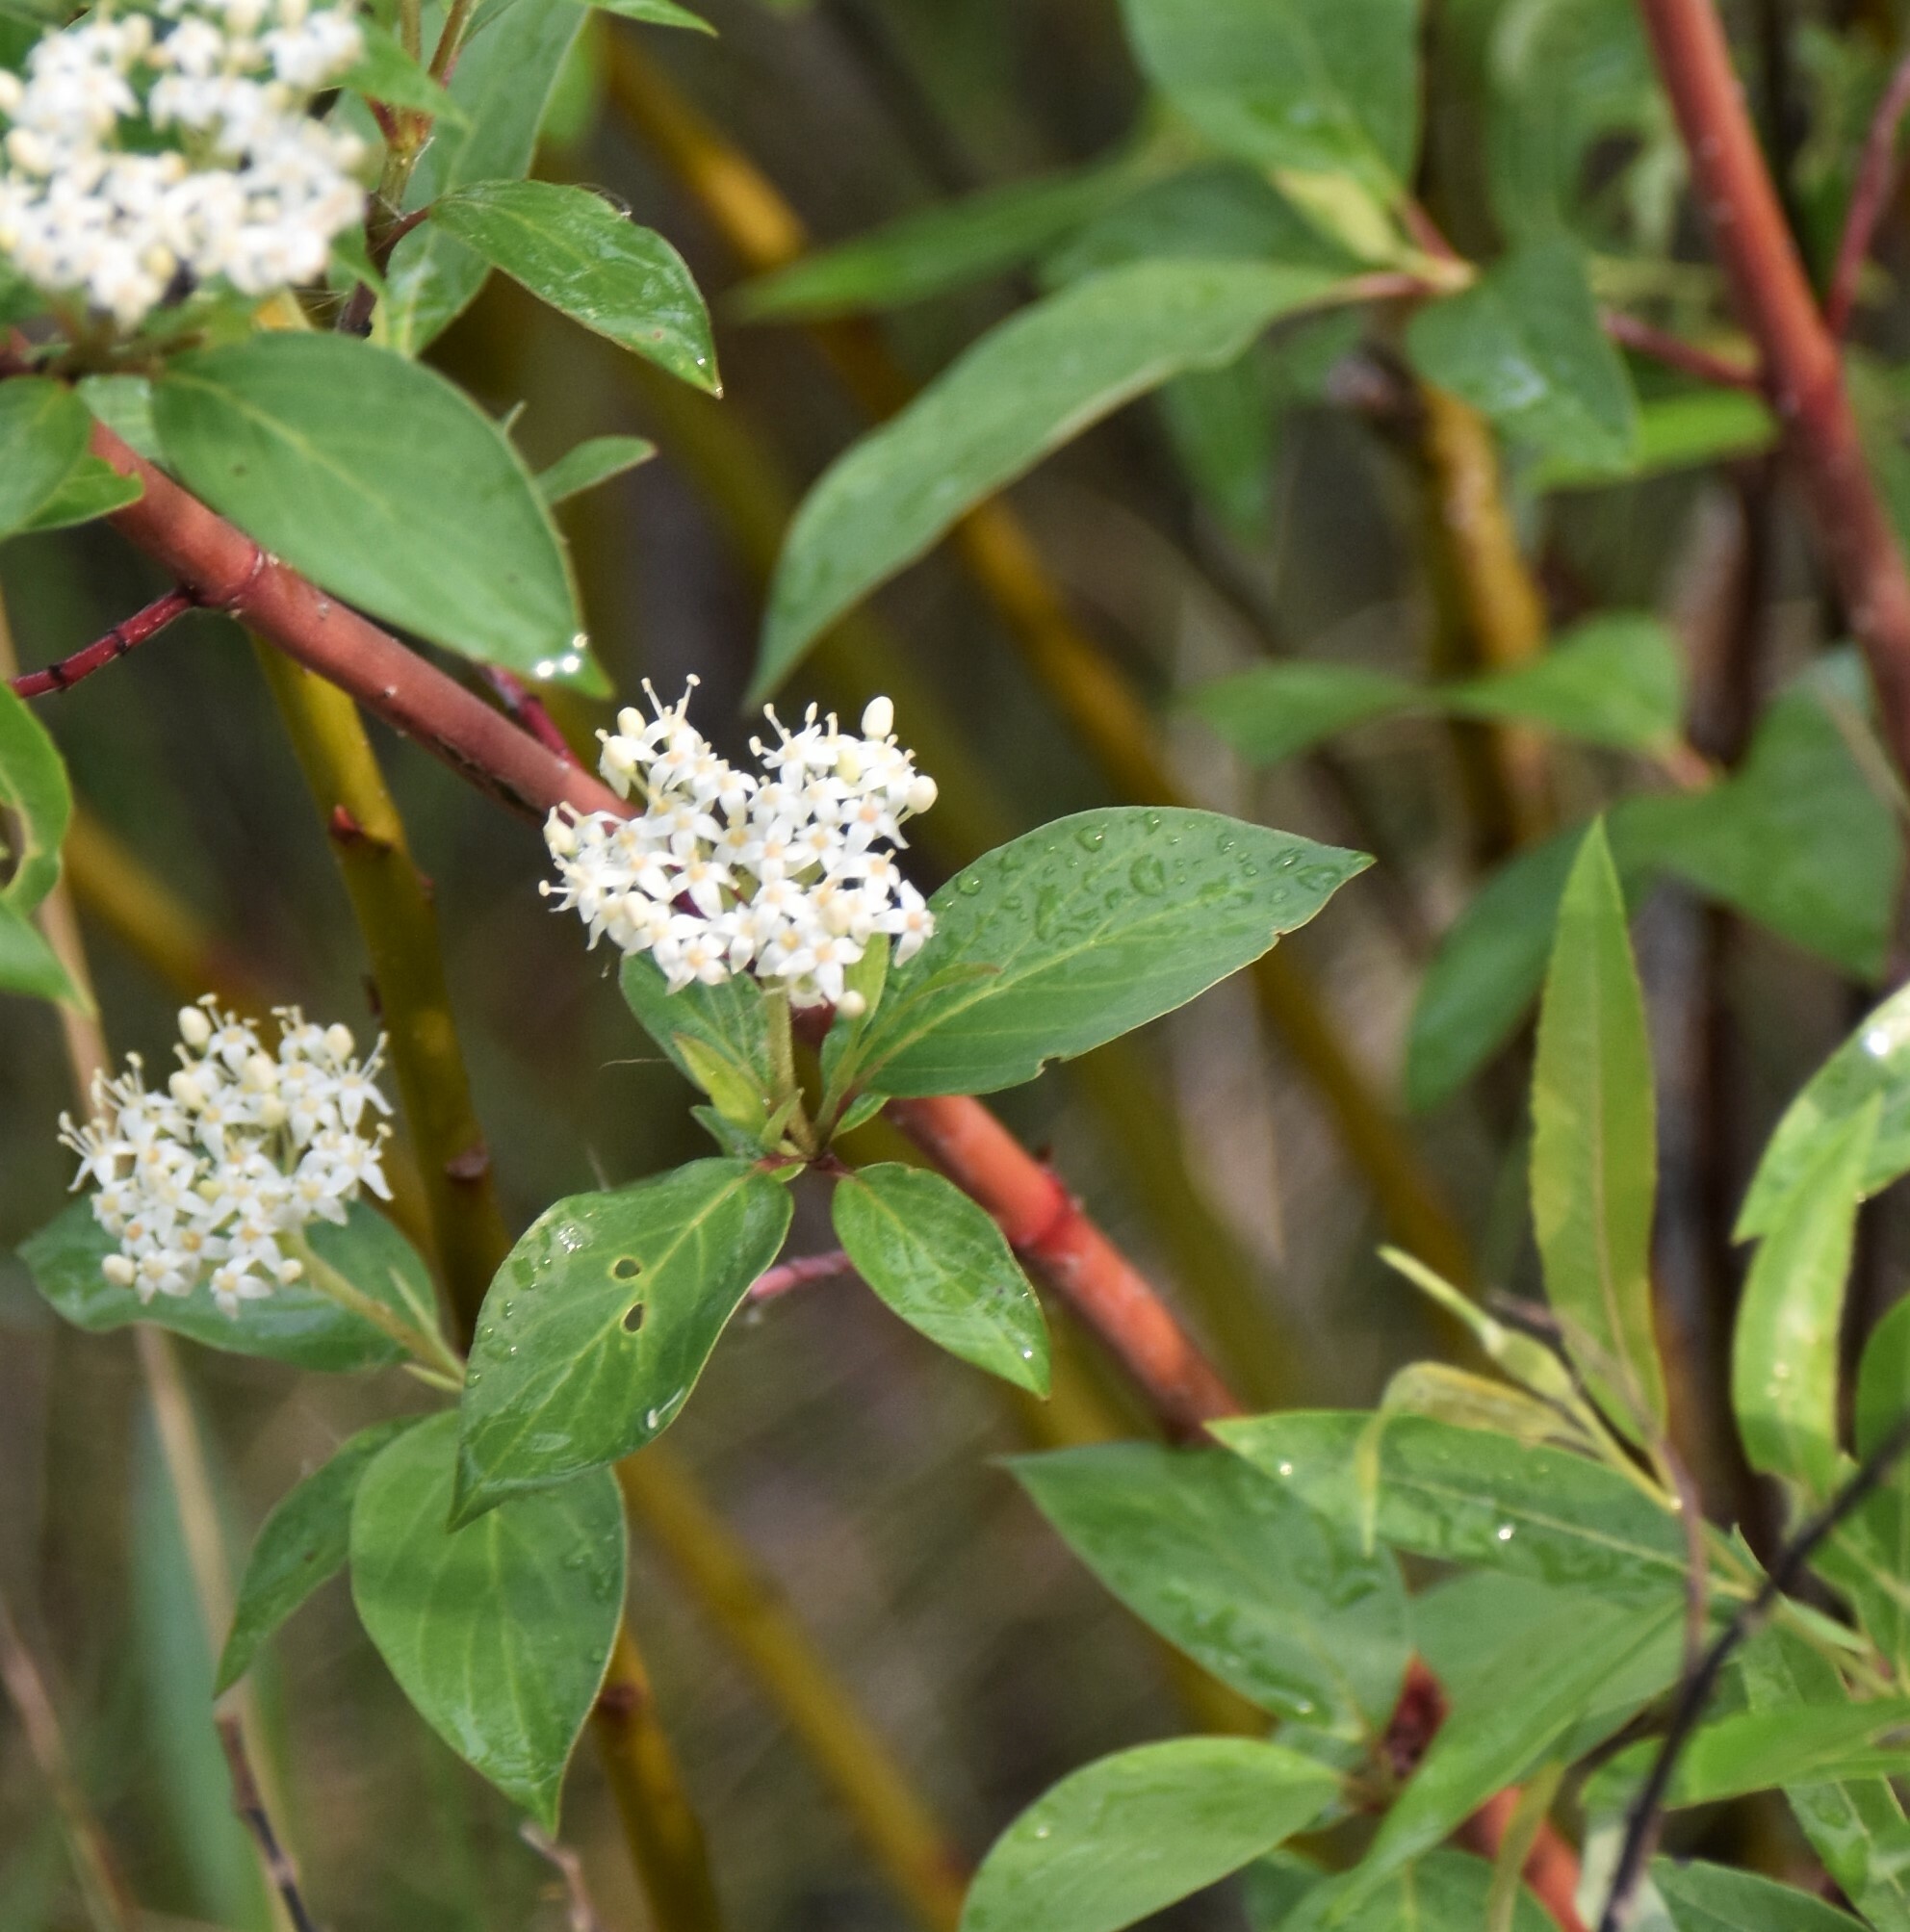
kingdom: Plantae
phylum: Tracheophyta
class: Magnoliopsida
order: Cornales
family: Cornaceae
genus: Cornus
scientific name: Cornus sericea
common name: Red-osier dogwood
